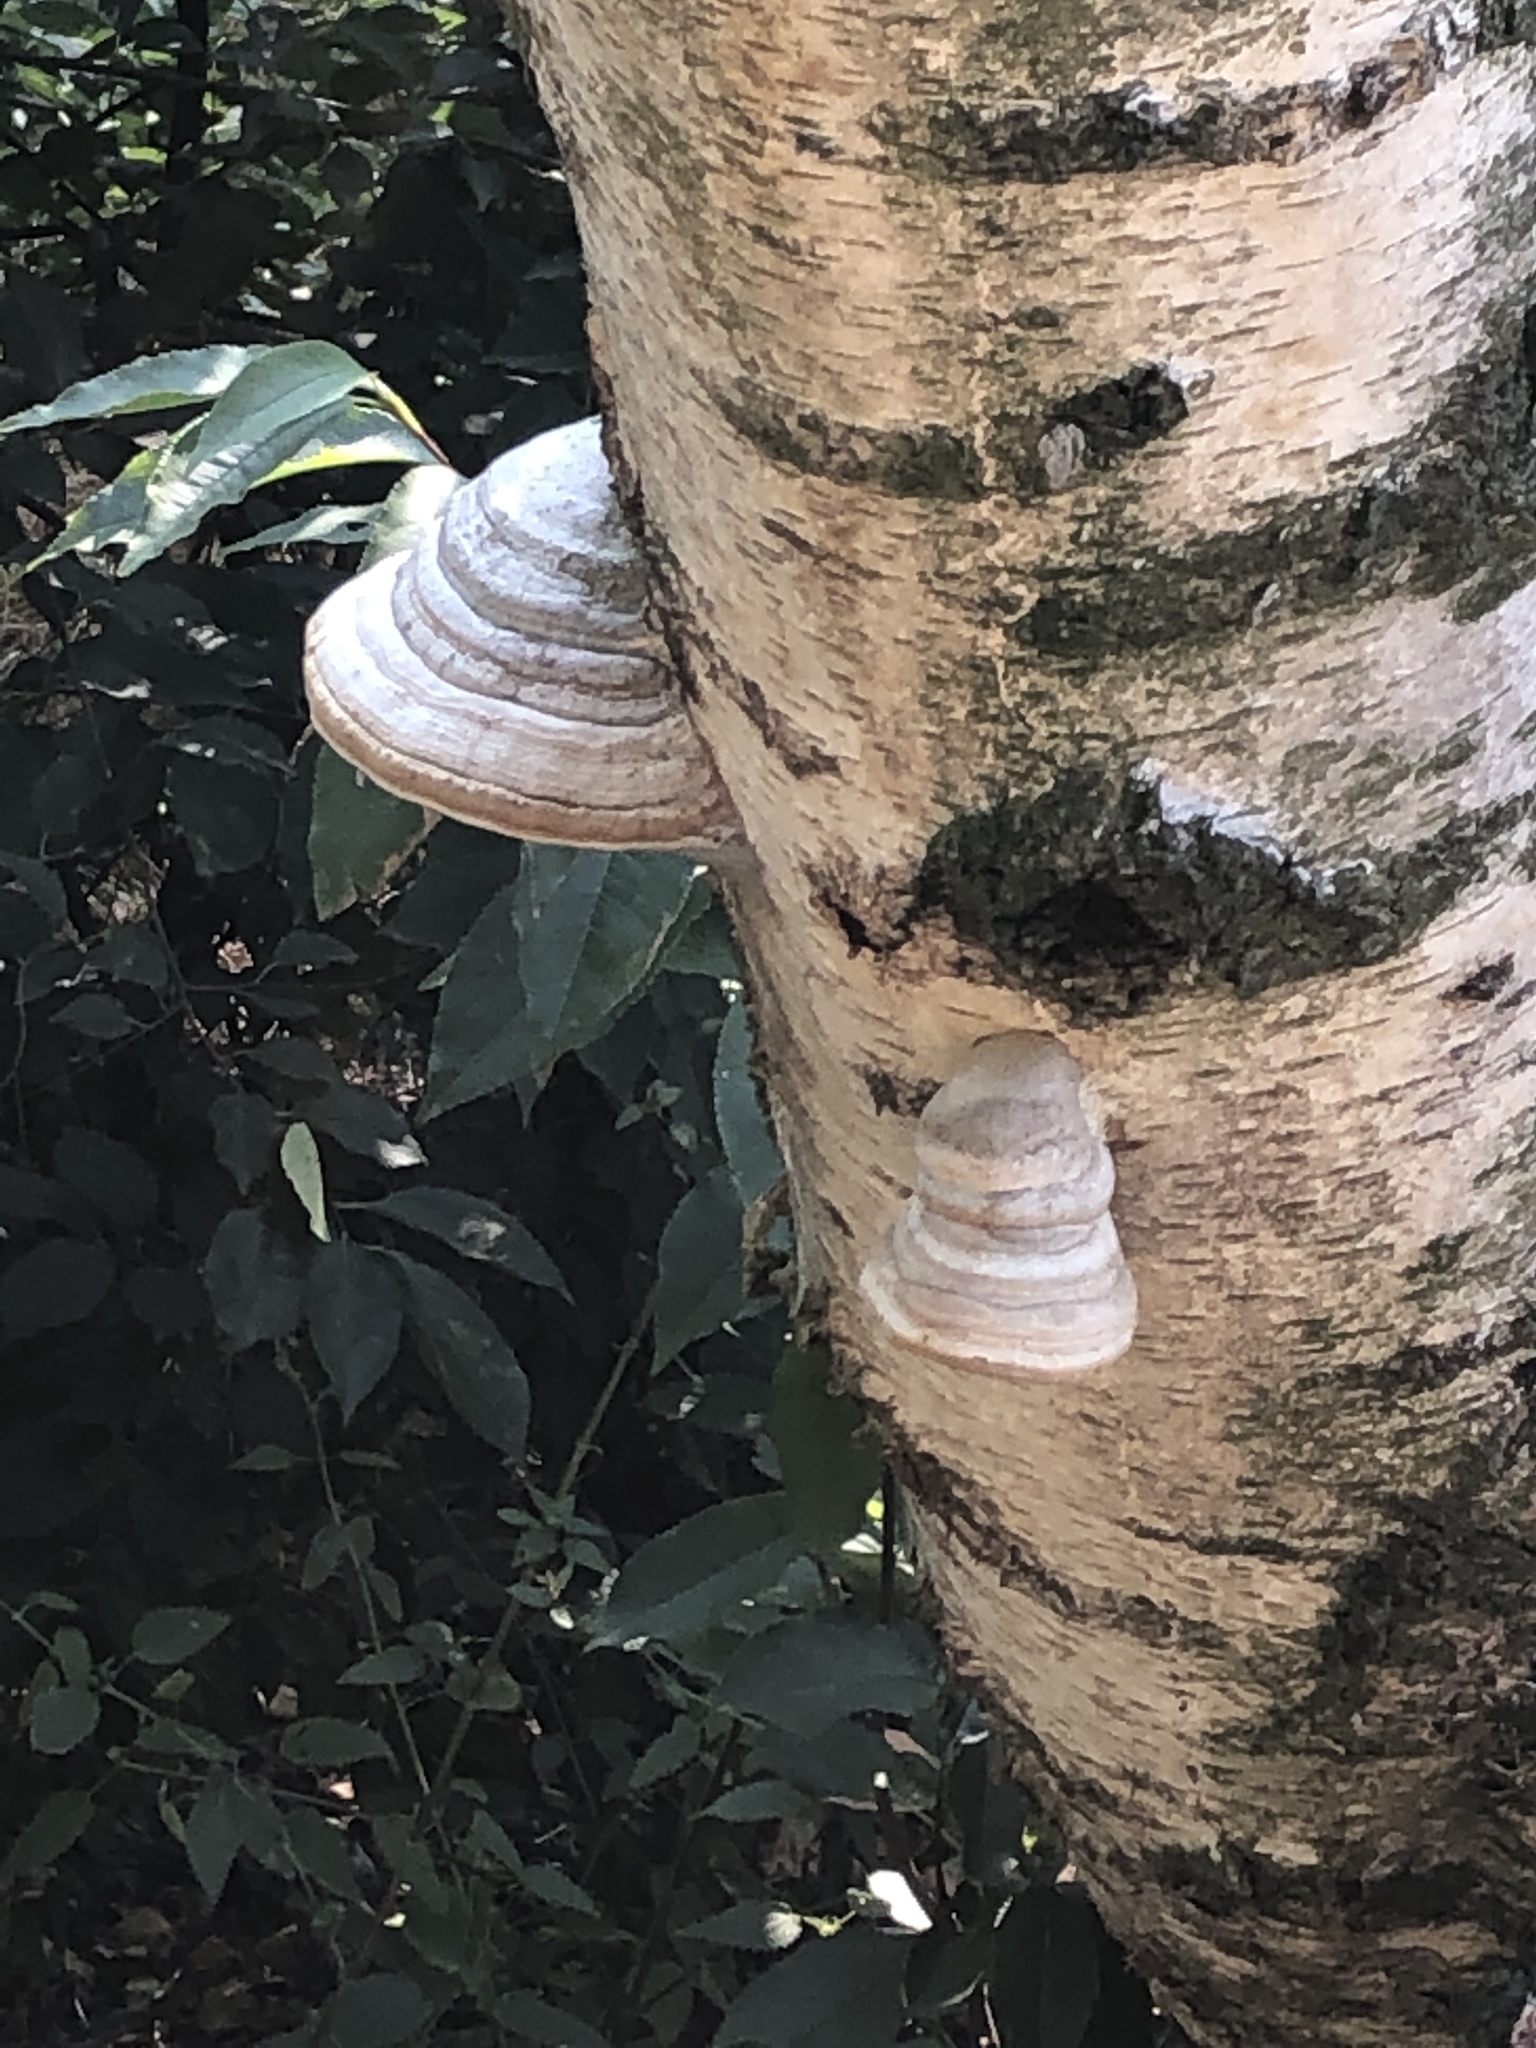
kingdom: Fungi
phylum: Basidiomycota
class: Agaricomycetes
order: Polyporales
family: Polyporaceae
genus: Fomes
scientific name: Fomes fomentarius
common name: Hoof fungus
